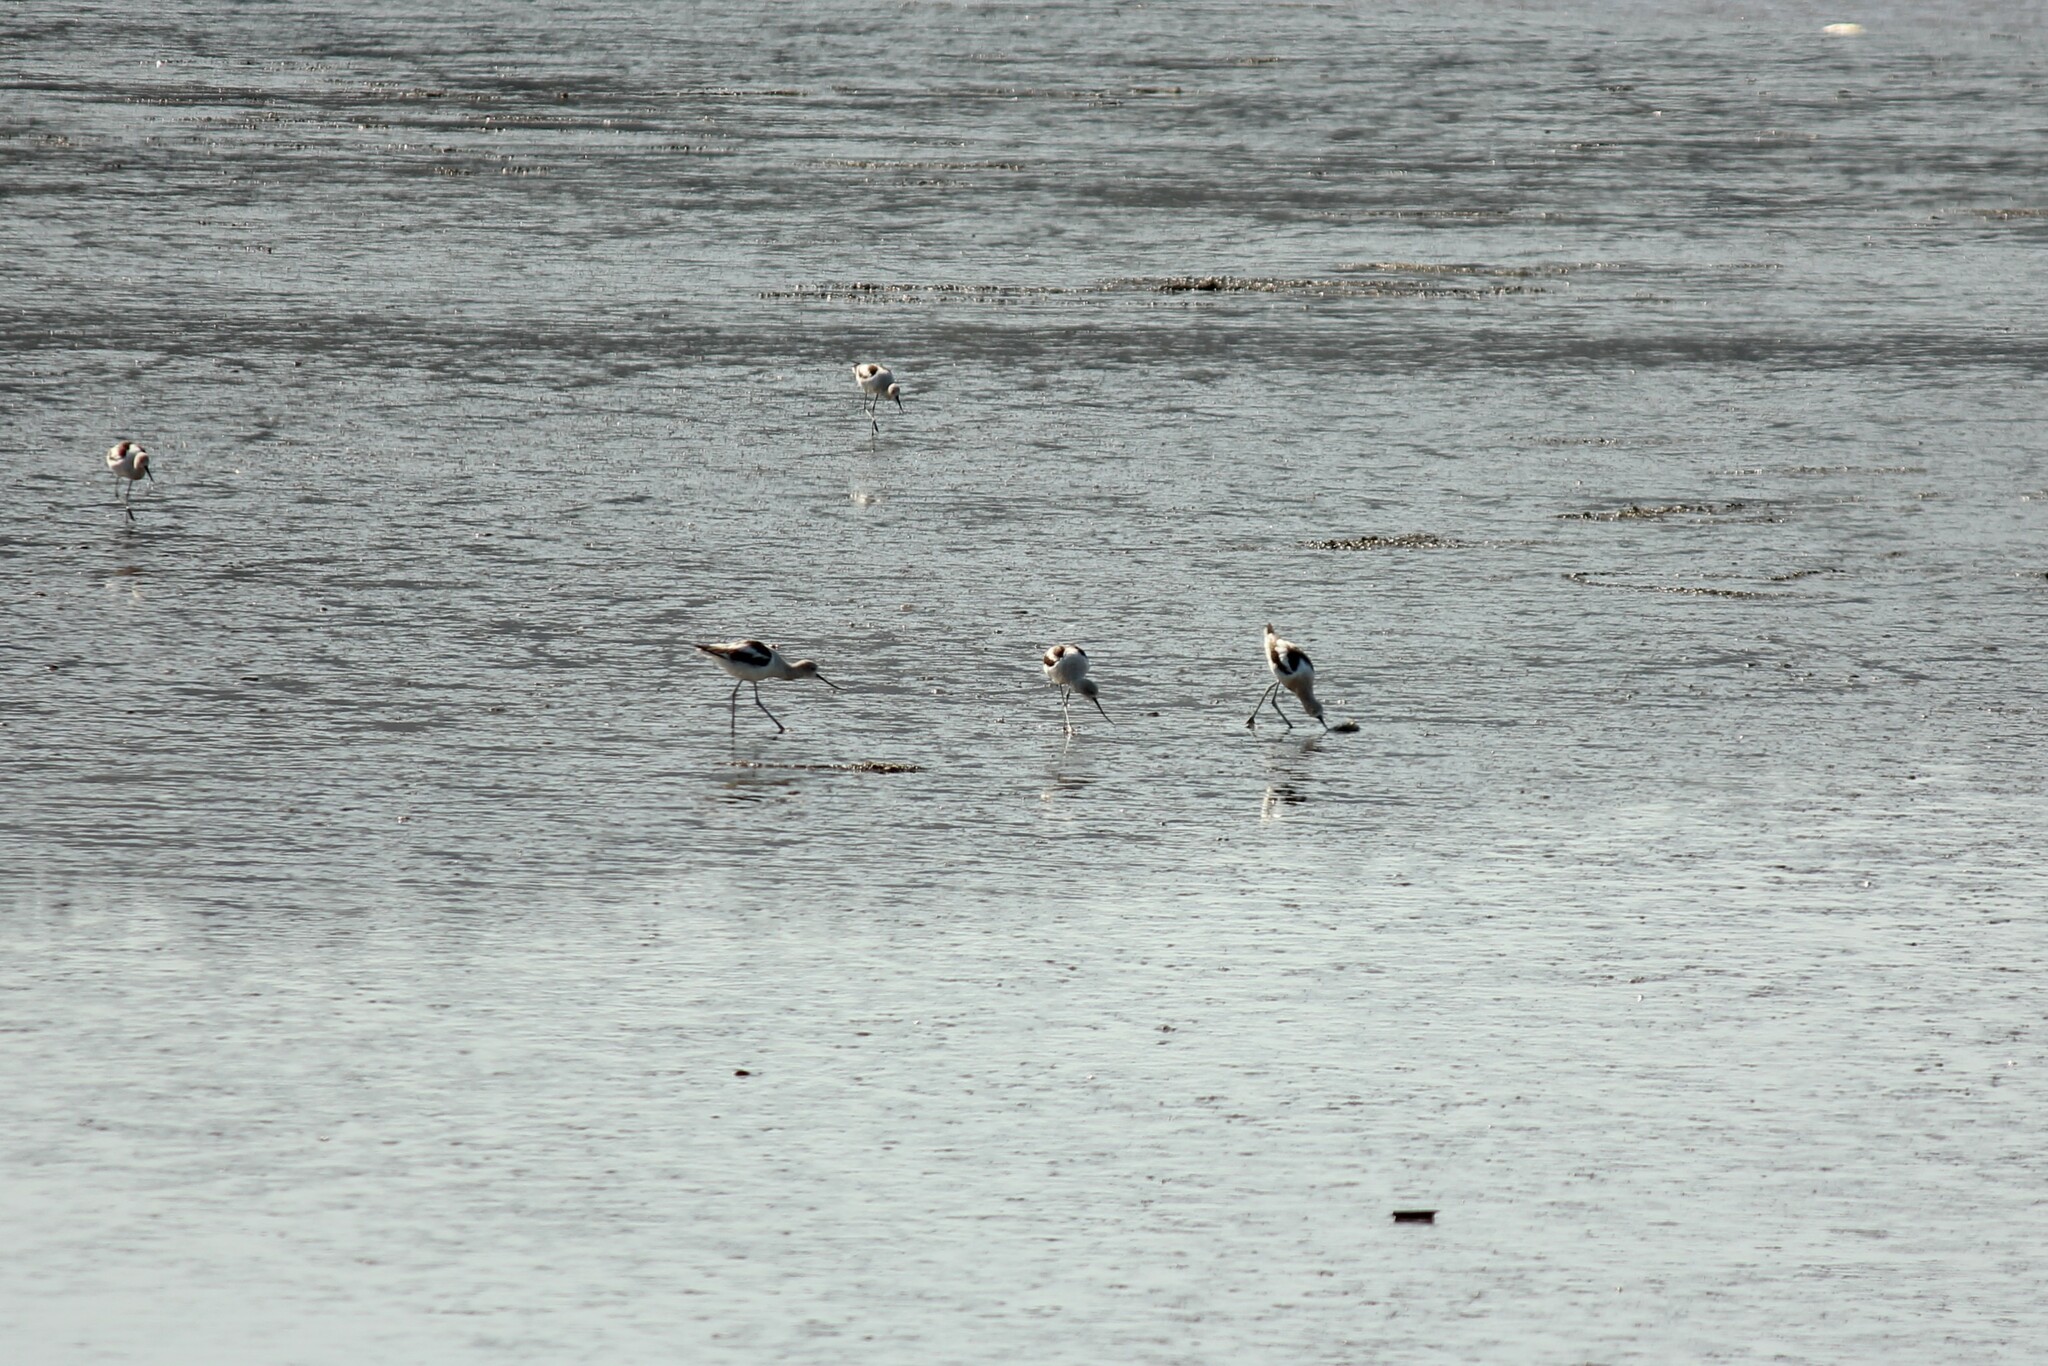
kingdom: Animalia
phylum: Chordata
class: Aves
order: Charadriiformes
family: Recurvirostridae
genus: Recurvirostra
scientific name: Recurvirostra americana
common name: American avocet
